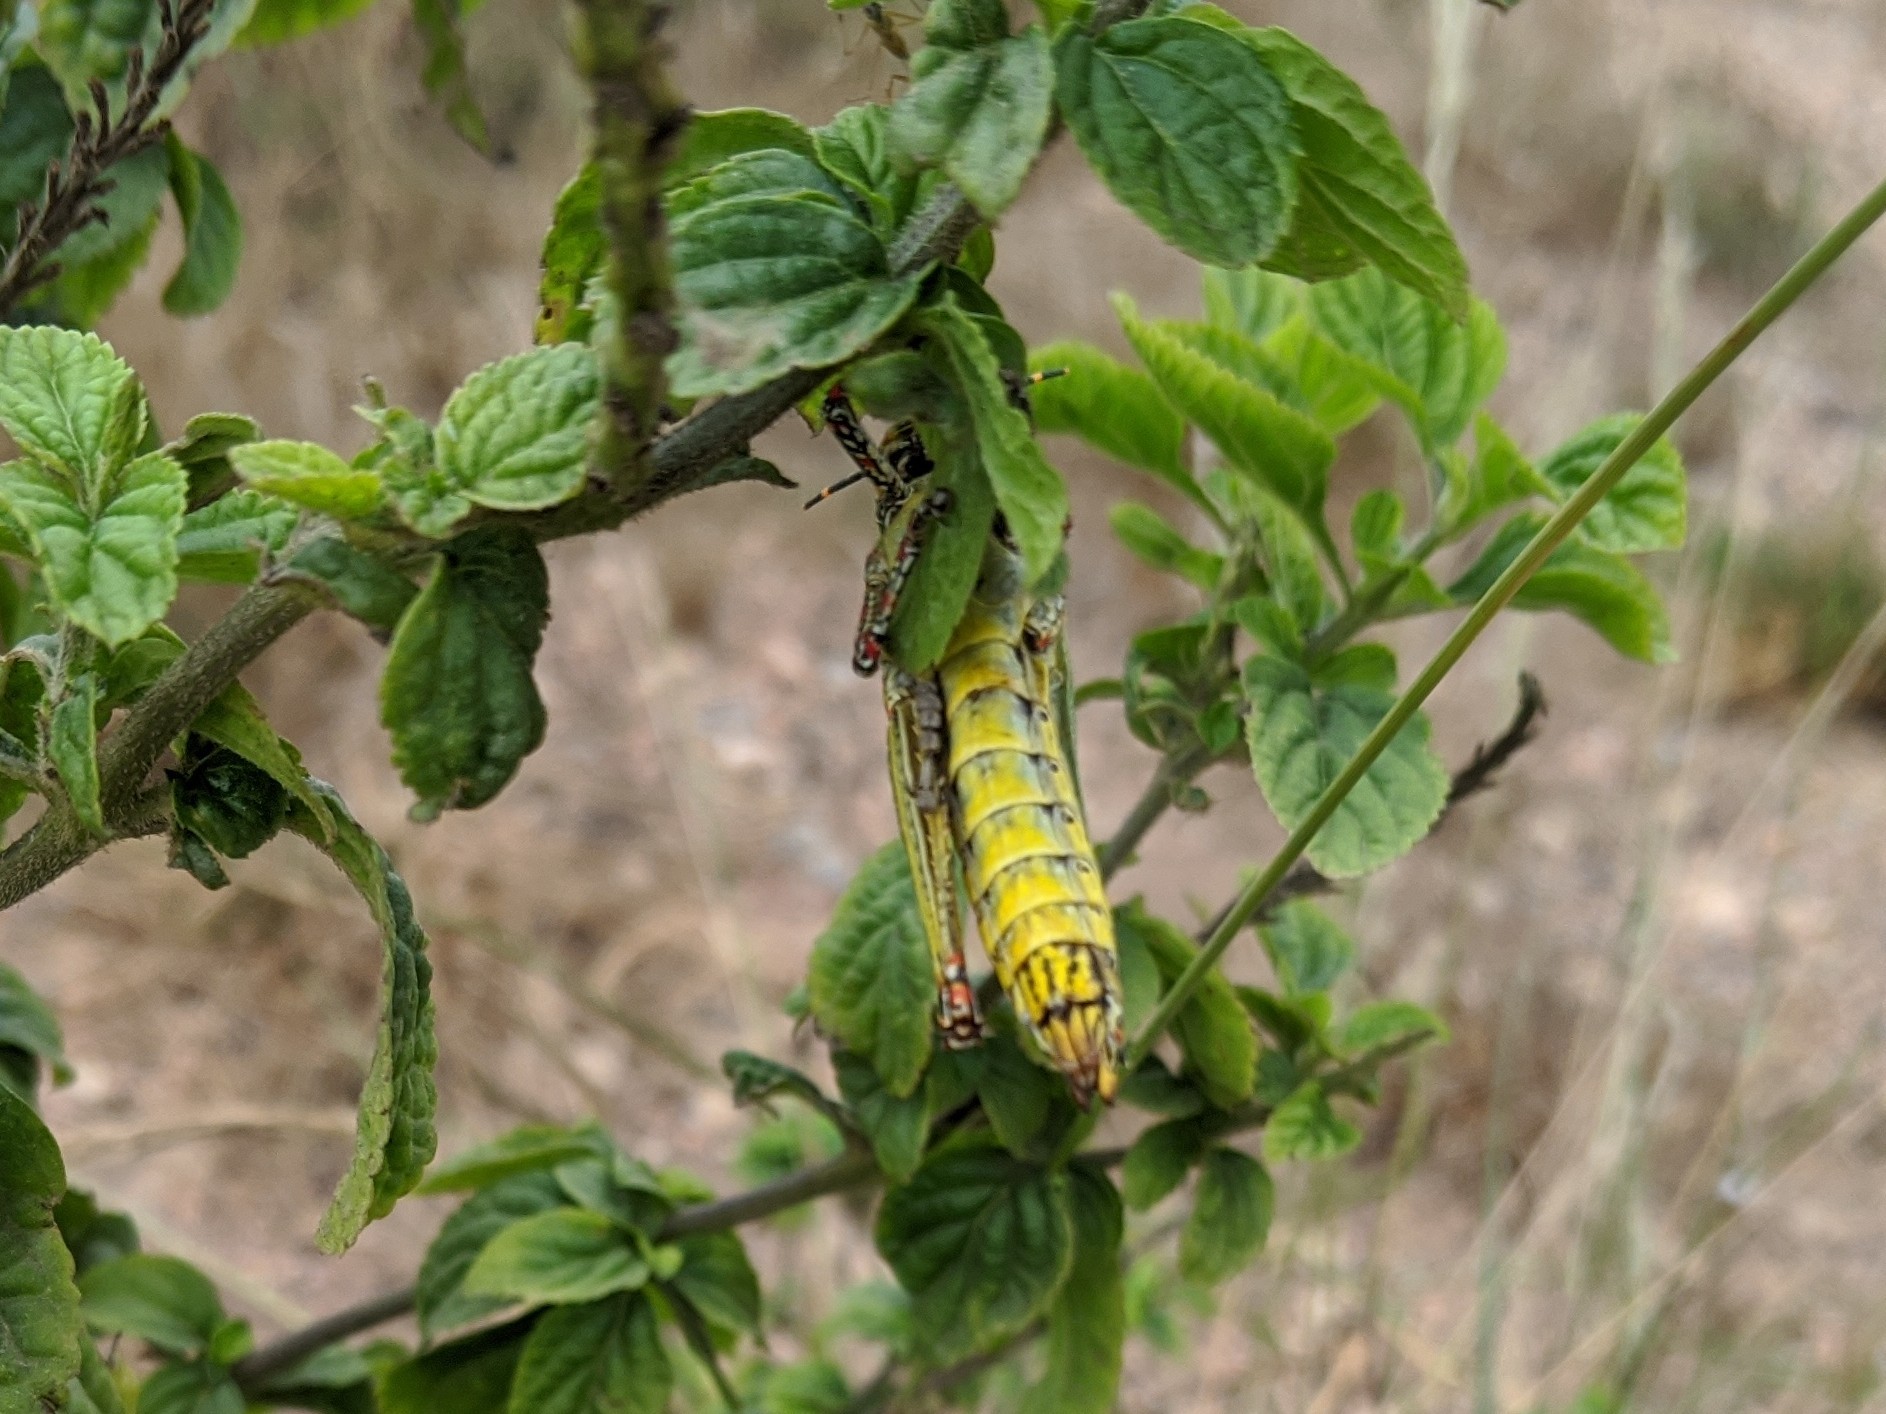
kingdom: Animalia
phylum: Arthropoda
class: Insecta
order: Orthoptera
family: Pyrgomorphidae
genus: Zonocerus
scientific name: Zonocerus variegatus
